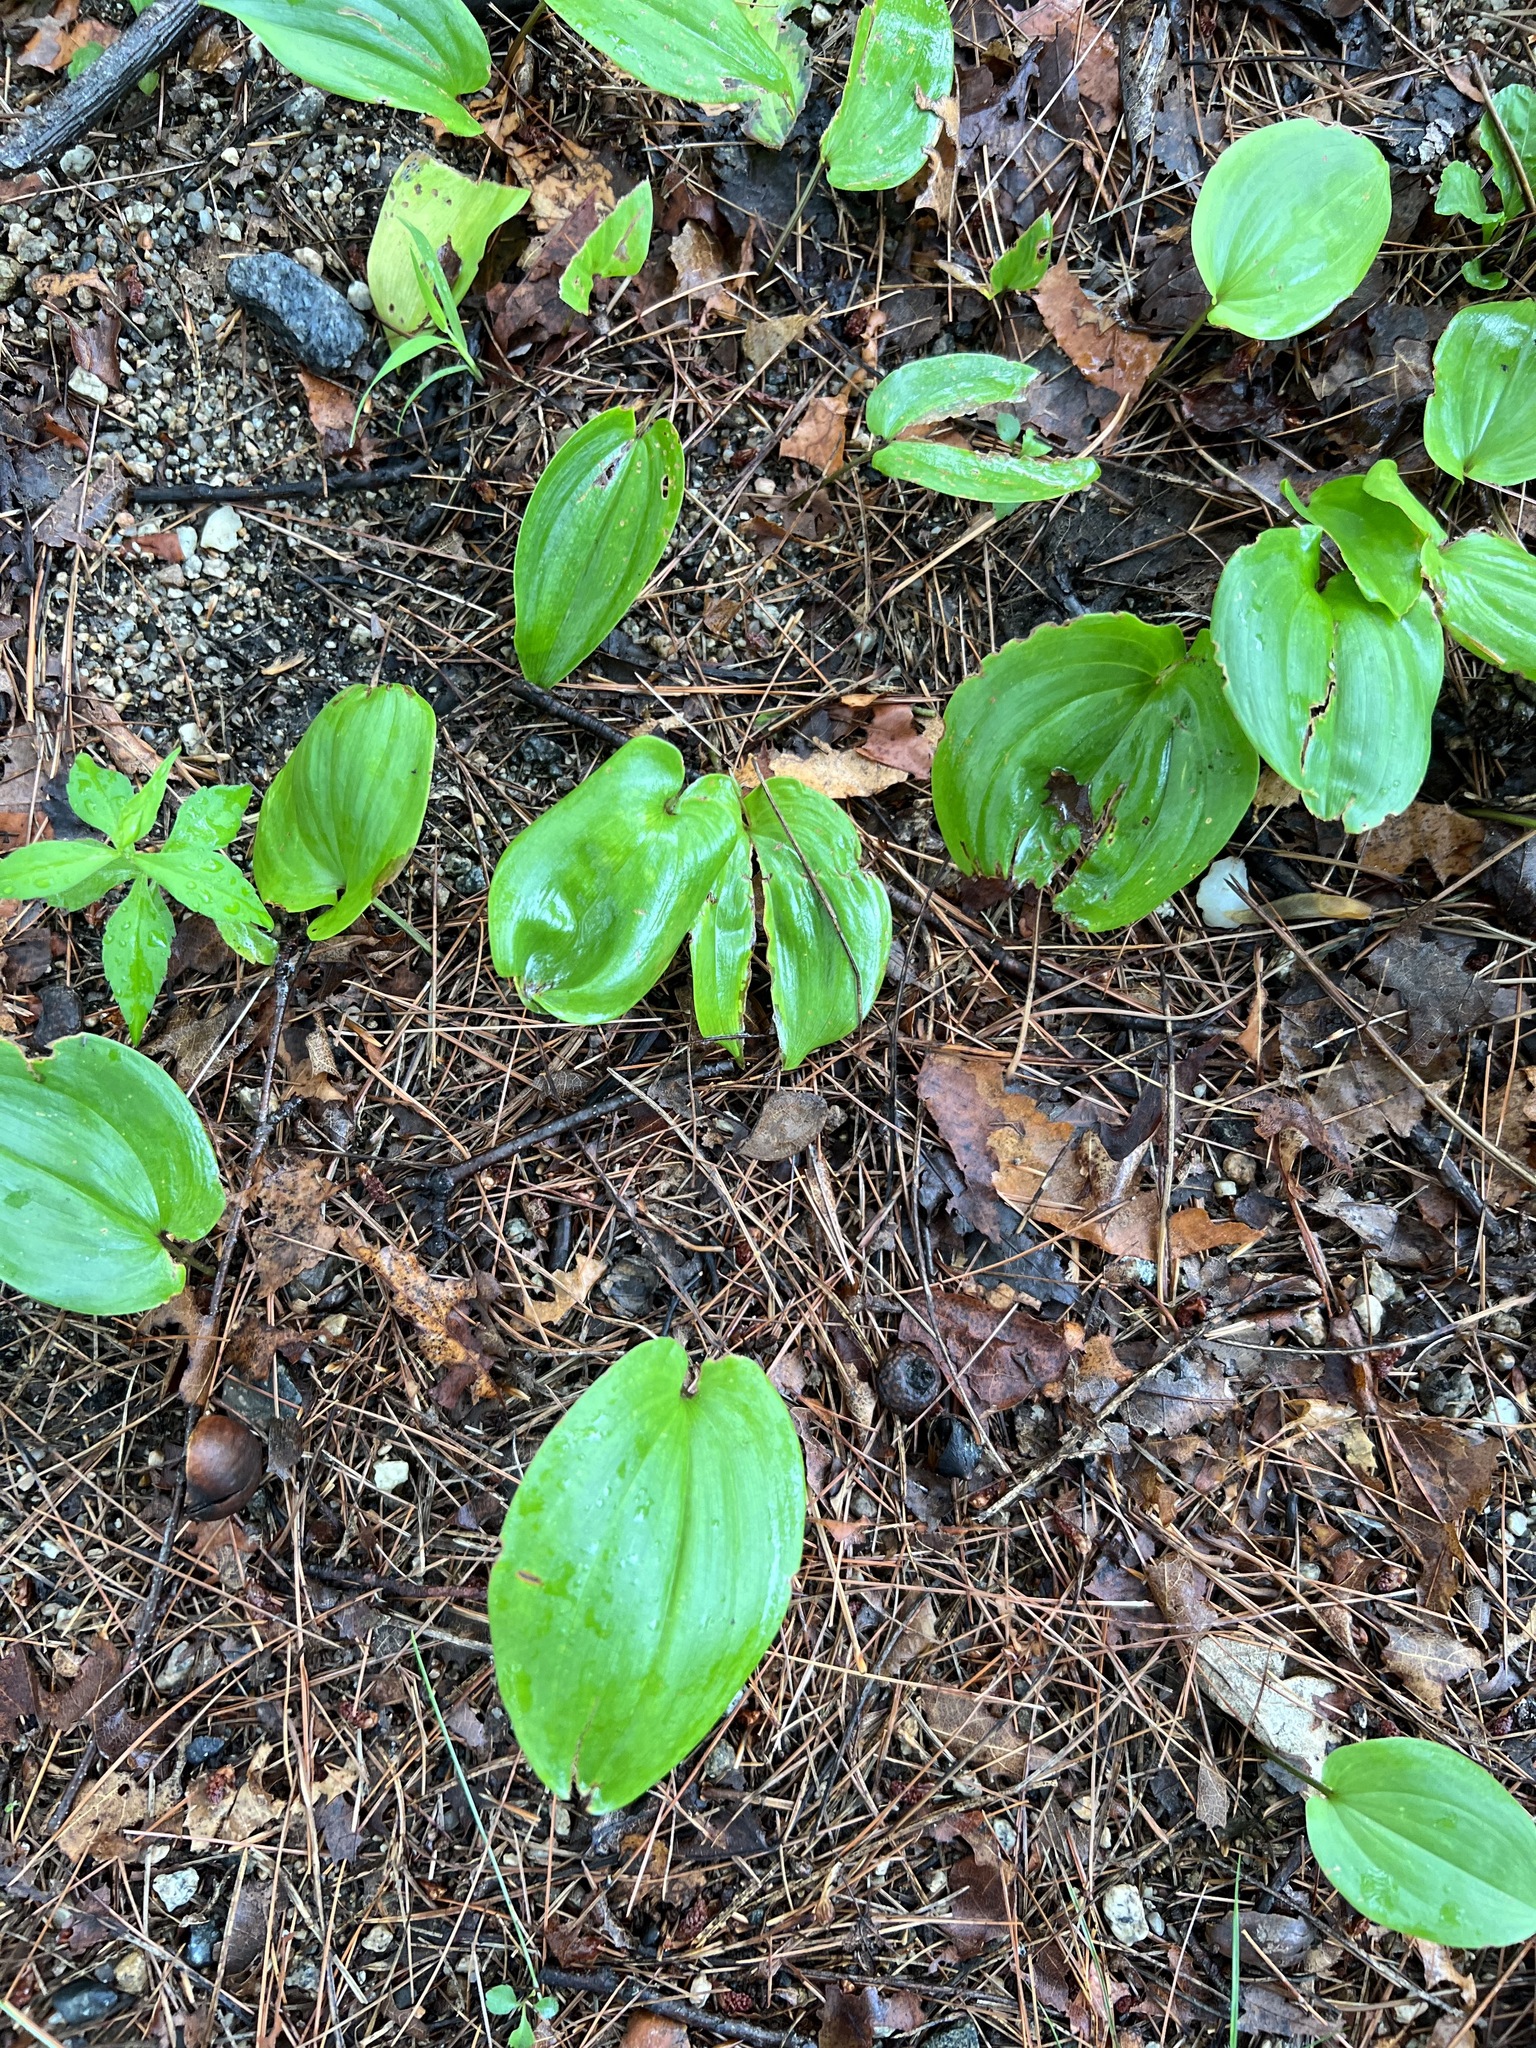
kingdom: Plantae
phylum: Tracheophyta
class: Liliopsida
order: Asparagales
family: Asparagaceae
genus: Maianthemum
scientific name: Maianthemum canadense
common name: False lily-of-the-valley
